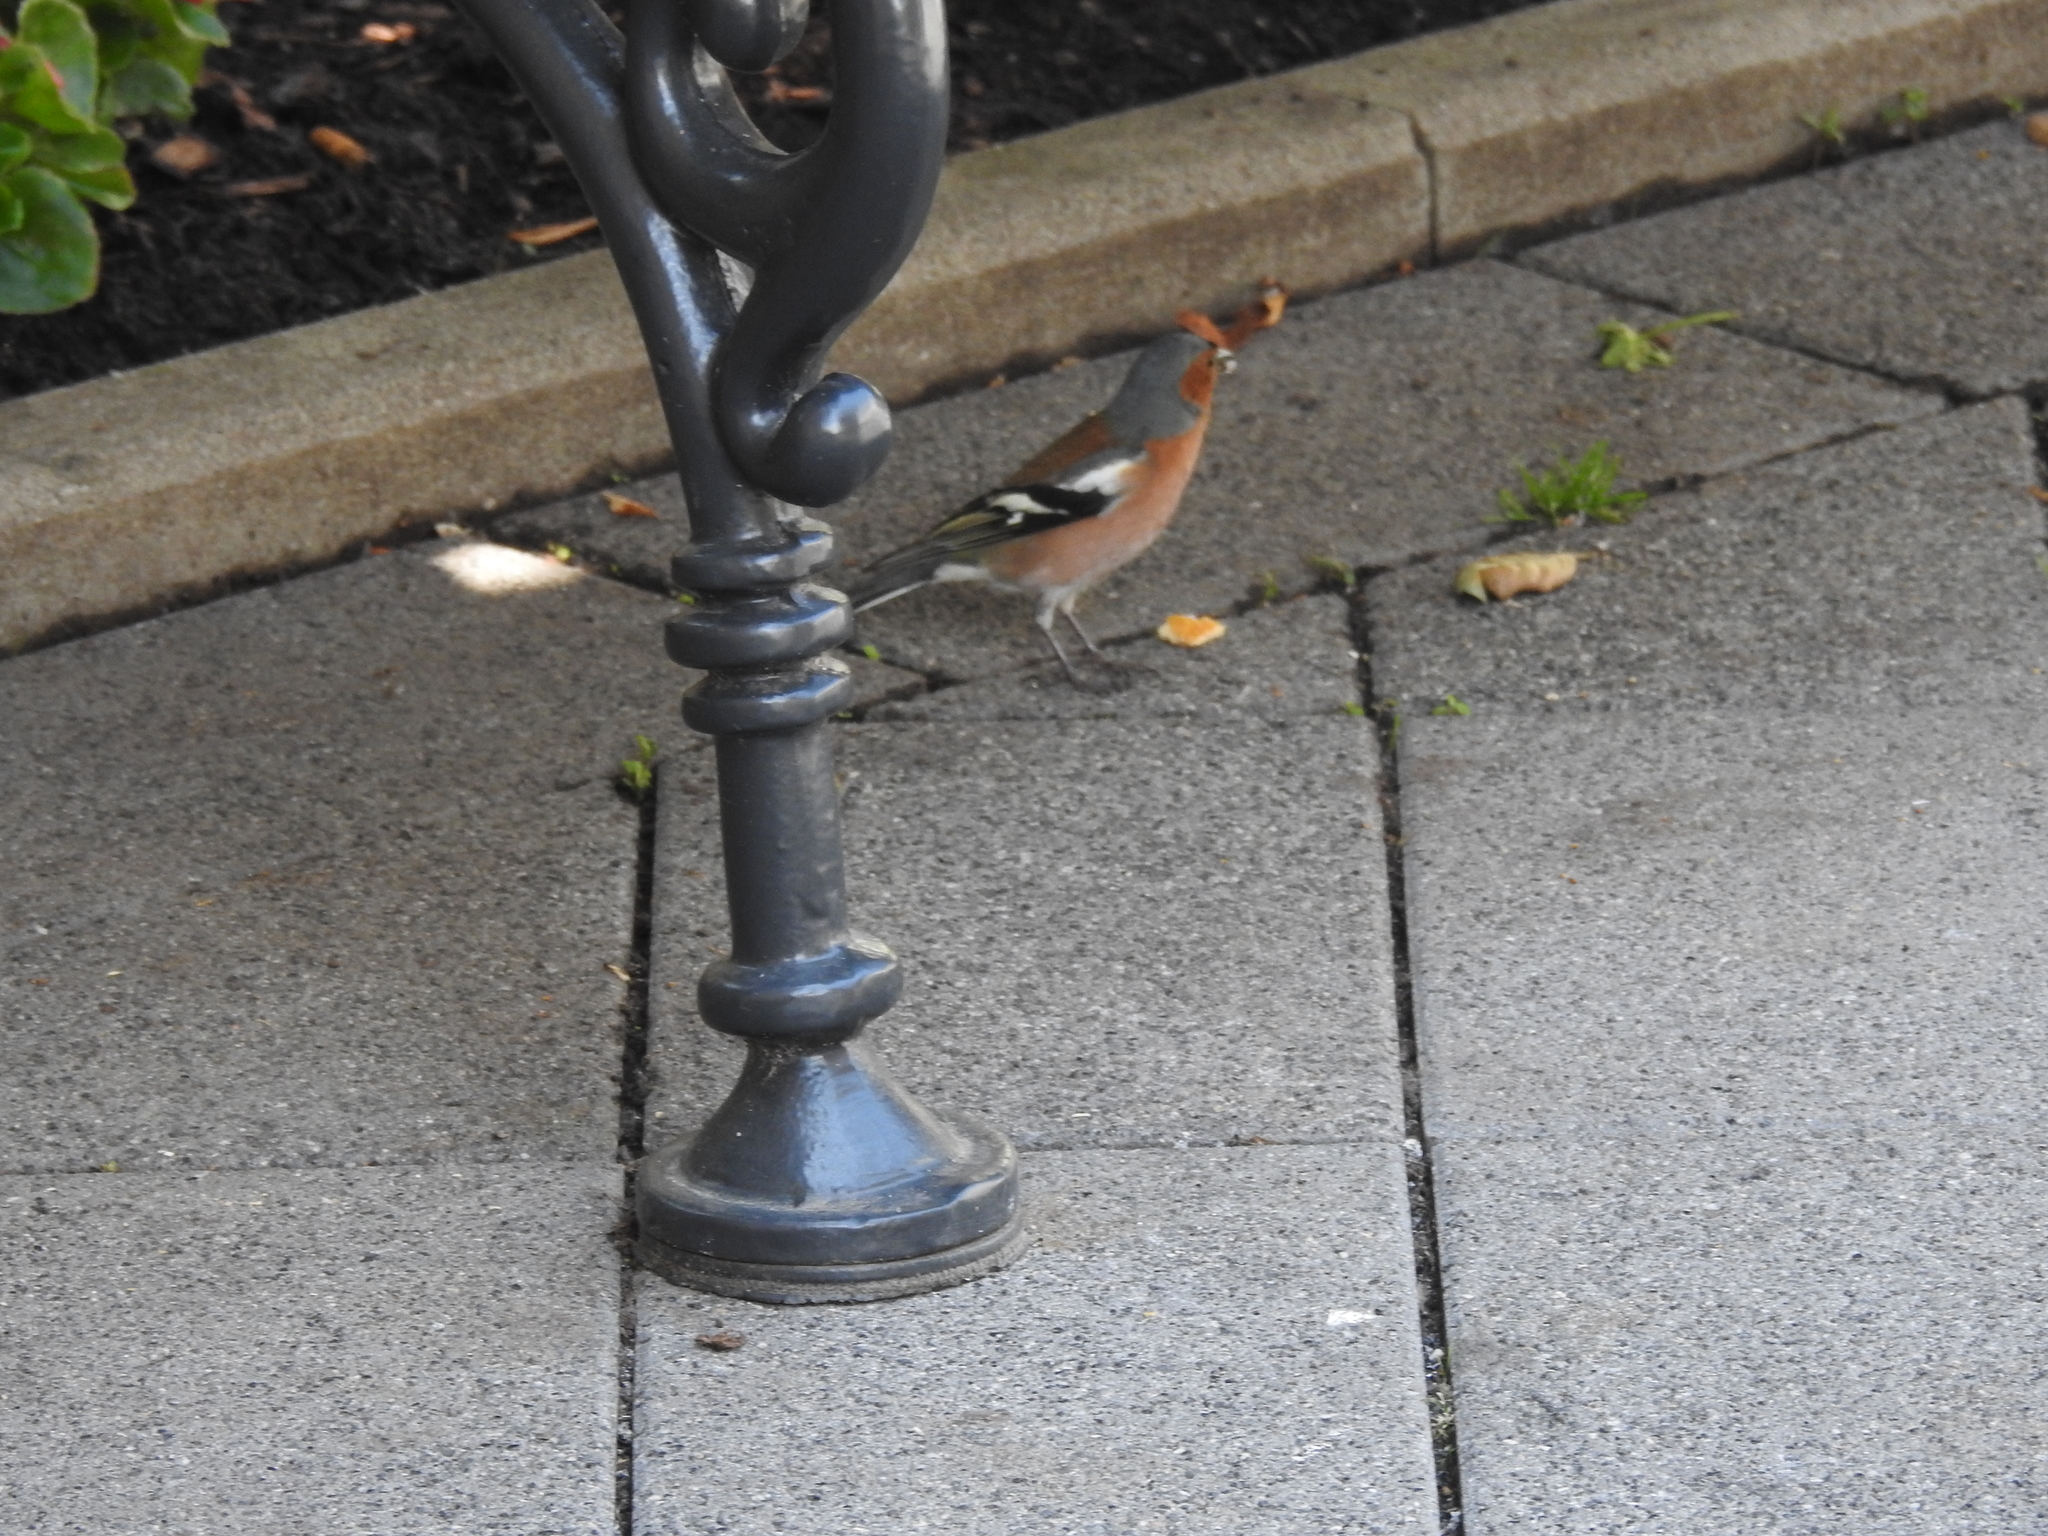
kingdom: Animalia
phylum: Chordata
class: Aves
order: Passeriformes
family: Fringillidae
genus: Fringilla
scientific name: Fringilla coelebs
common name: Common chaffinch
